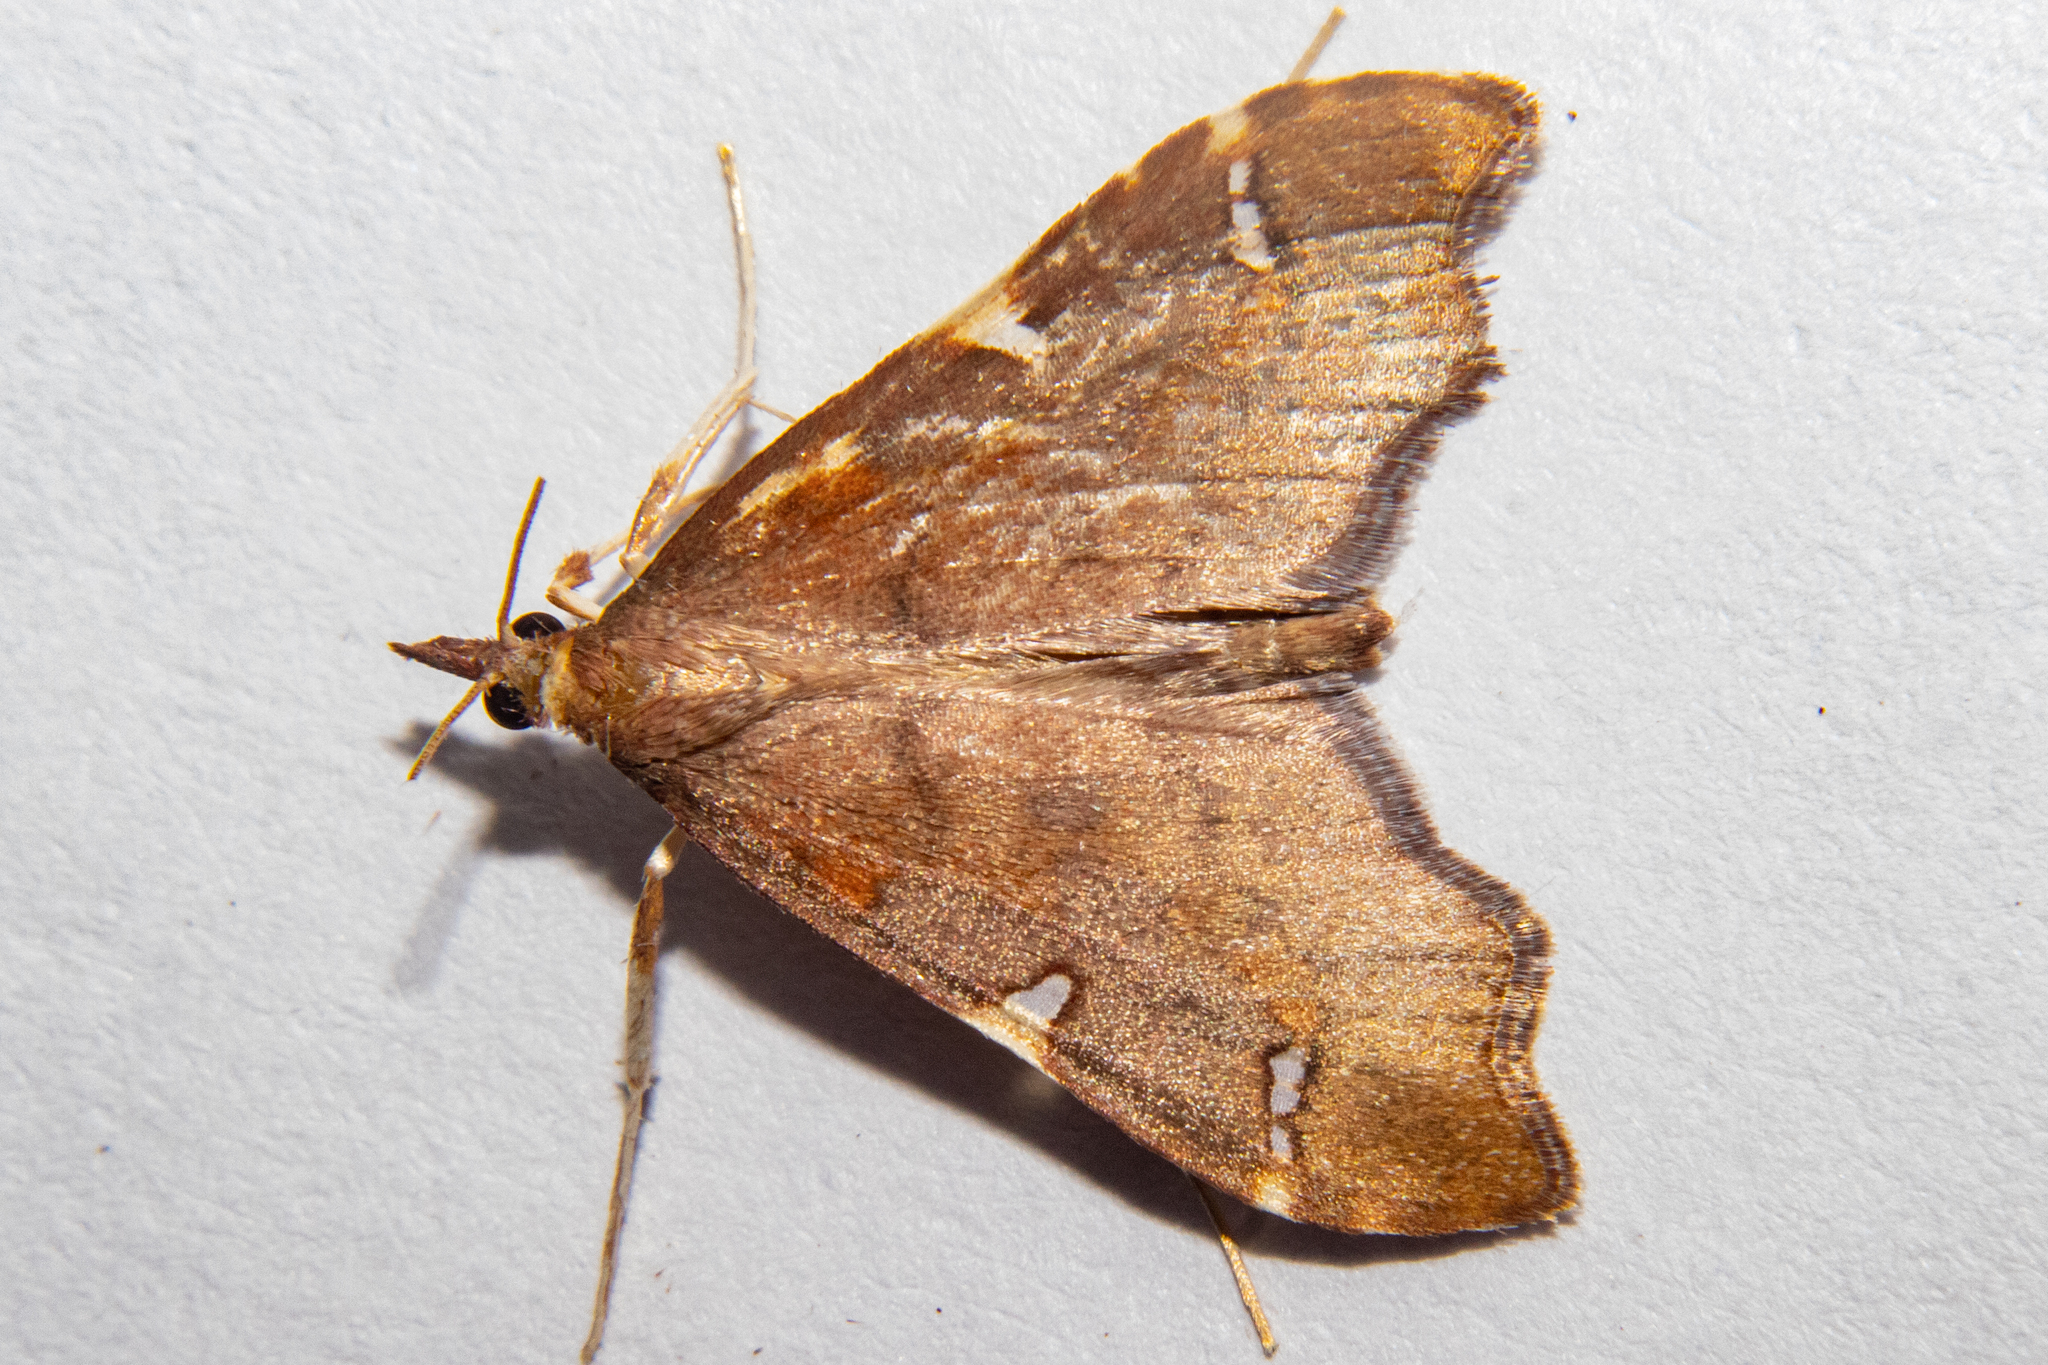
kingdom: Animalia
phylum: Arthropoda
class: Insecta
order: Lepidoptera
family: Crambidae
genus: Deana
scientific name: Deana hybreasalis
